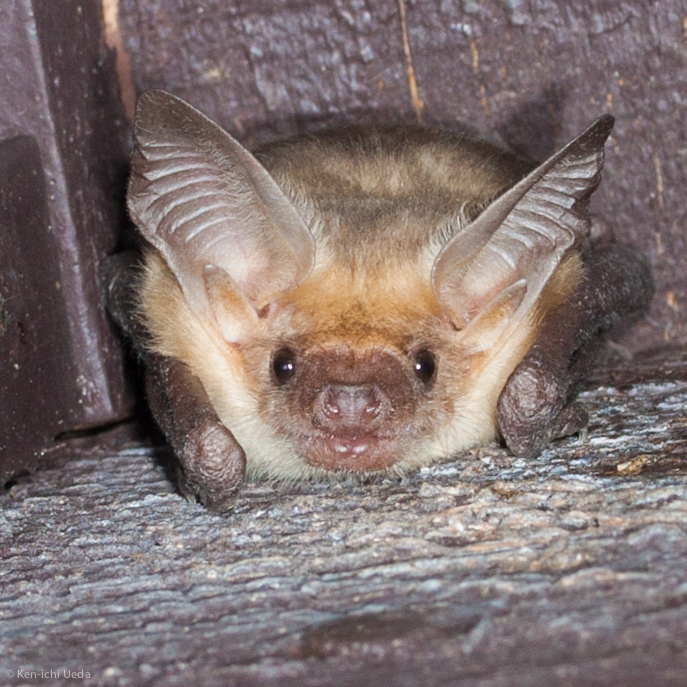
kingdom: Animalia
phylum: Chordata
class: Mammalia
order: Chiroptera
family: Vespertilionidae
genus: Antrozous
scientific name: Antrozous pallidus
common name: Pallid bat
